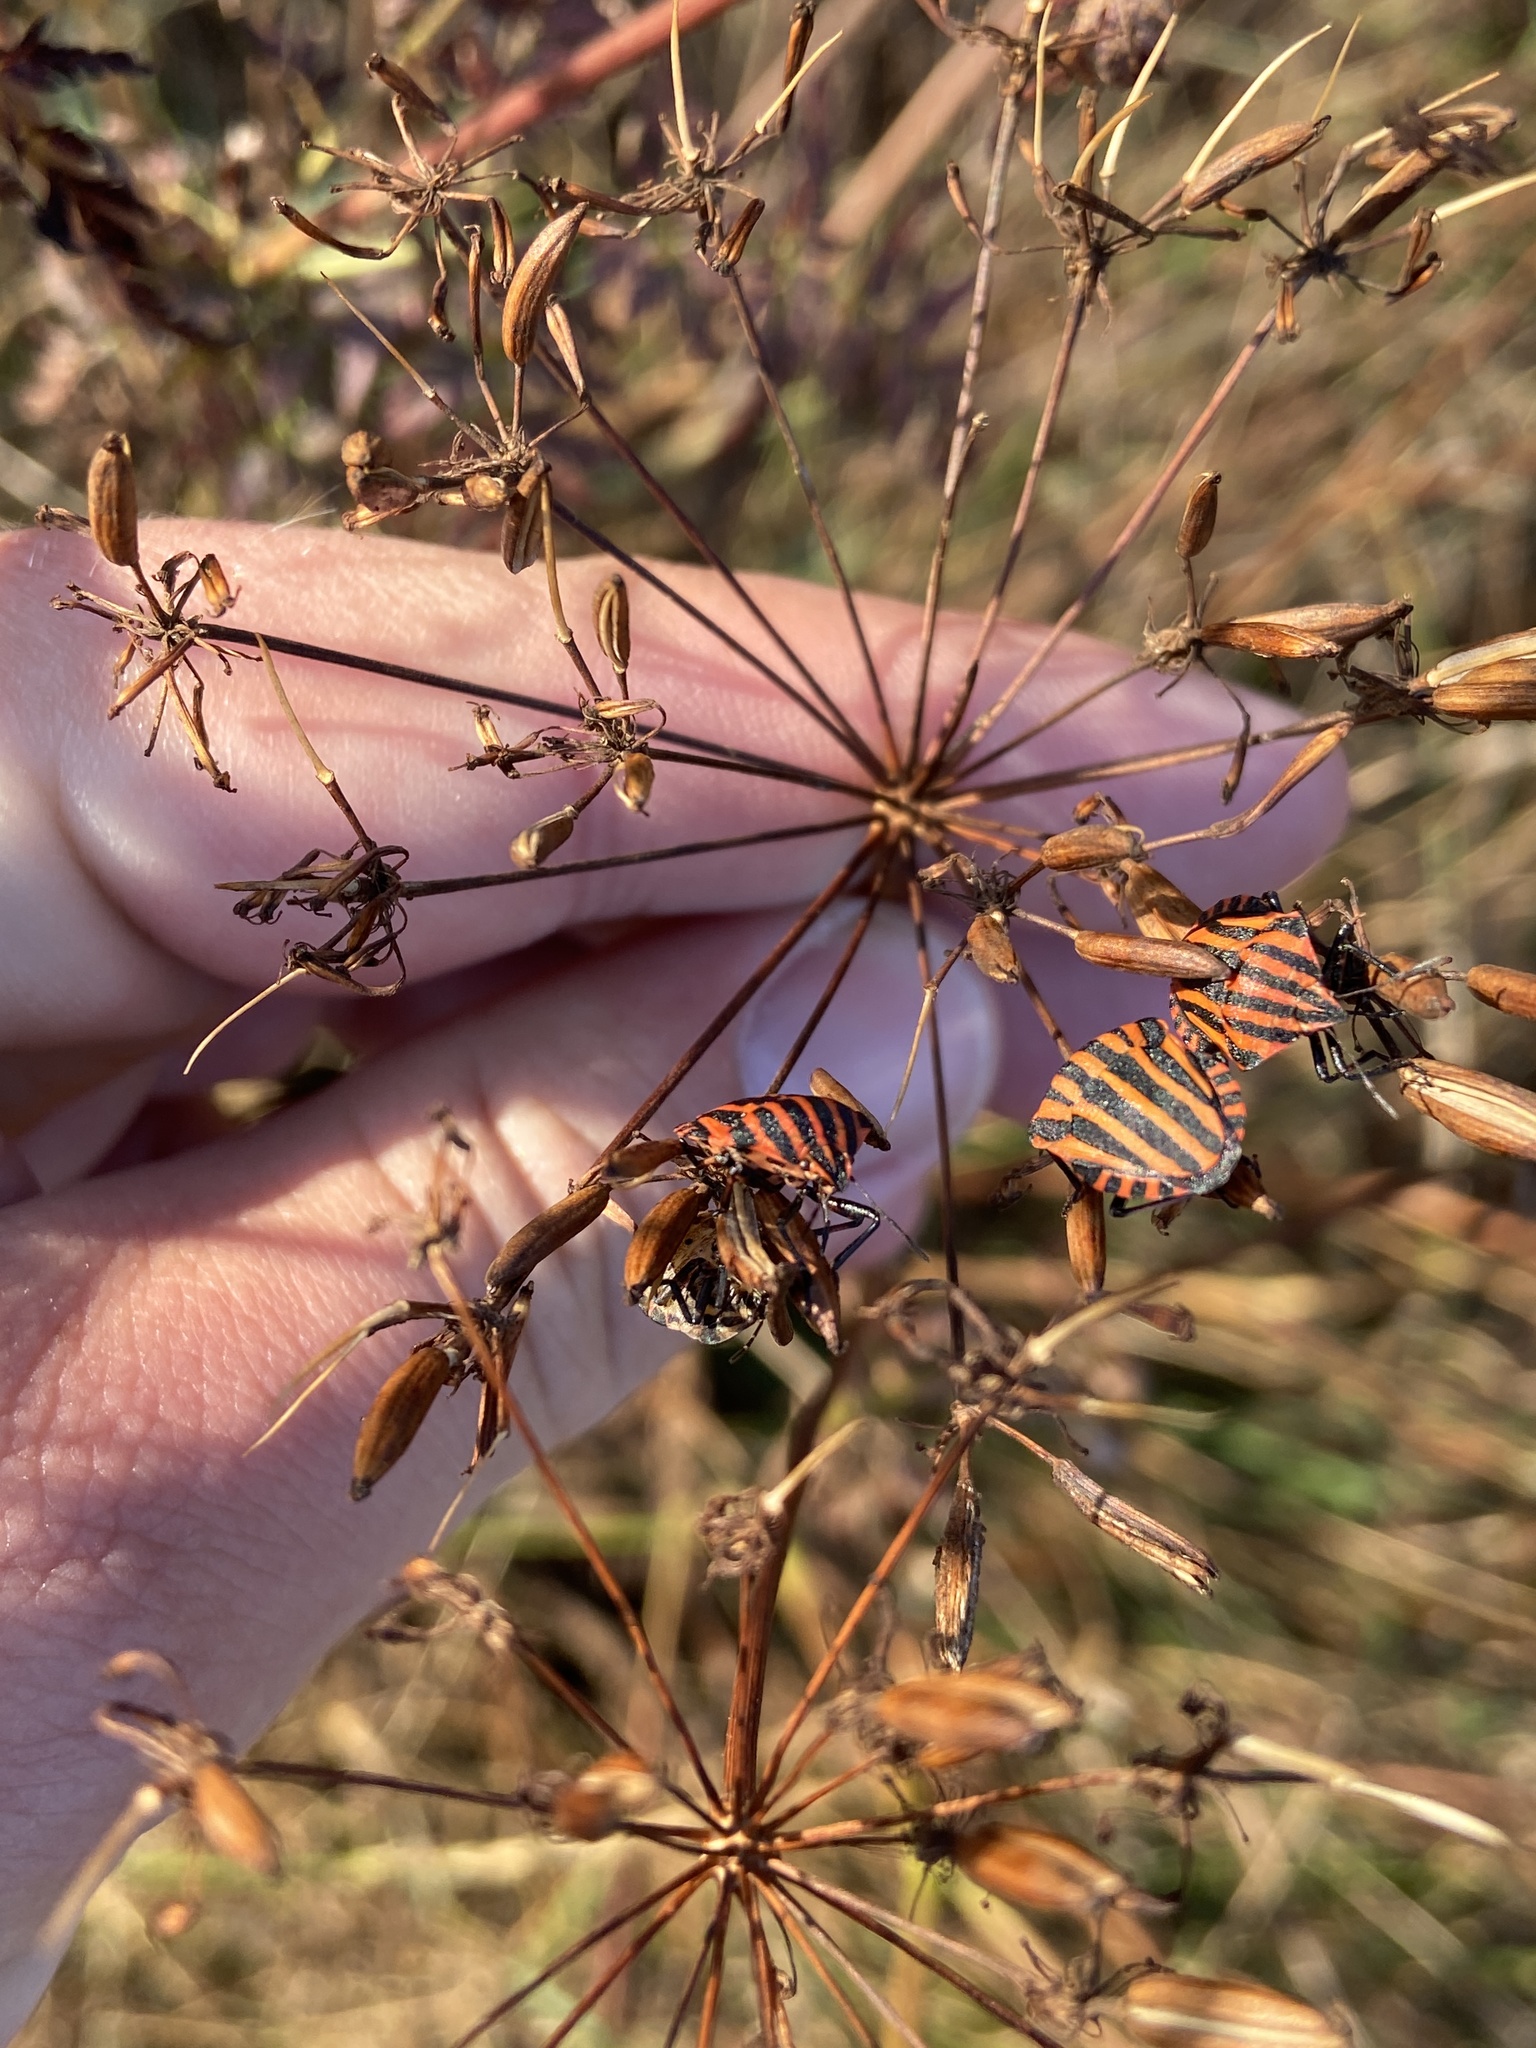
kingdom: Animalia
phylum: Arthropoda
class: Insecta
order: Hemiptera
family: Pentatomidae
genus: Graphosoma
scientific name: Graphosoma italicum
